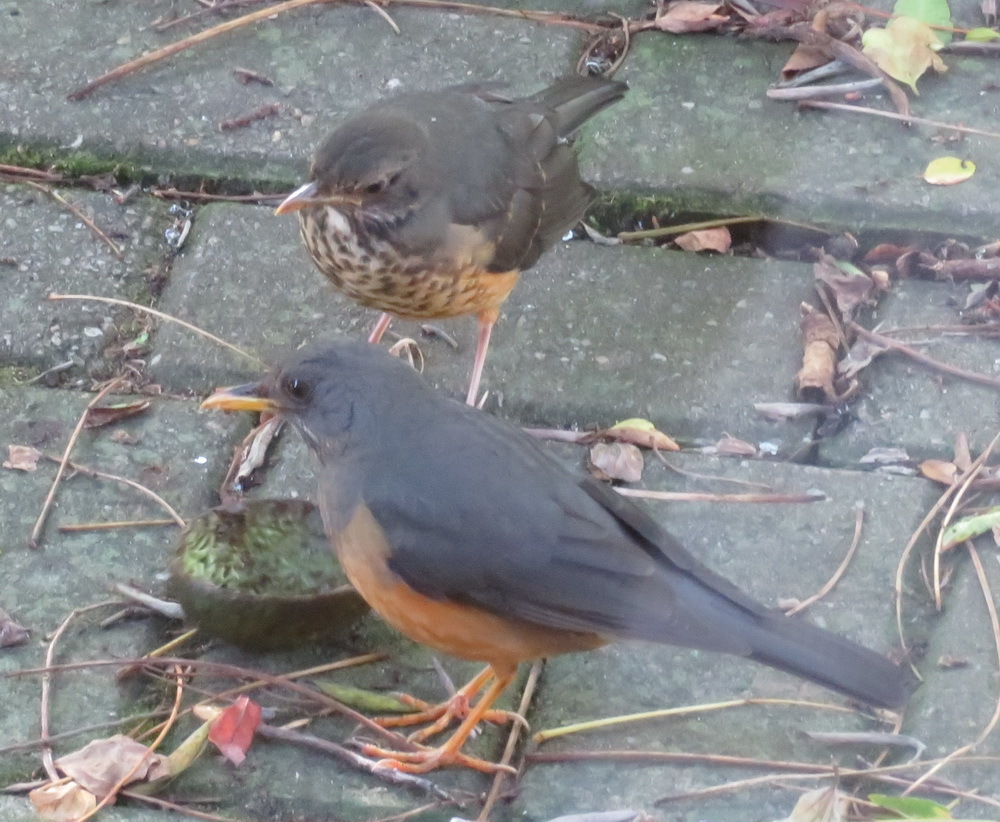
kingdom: Animalia
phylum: Chordata
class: Aves
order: Passeriformes
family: Turdidae
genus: Turdus
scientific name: Turdus olivaceus
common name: Olive thrush
